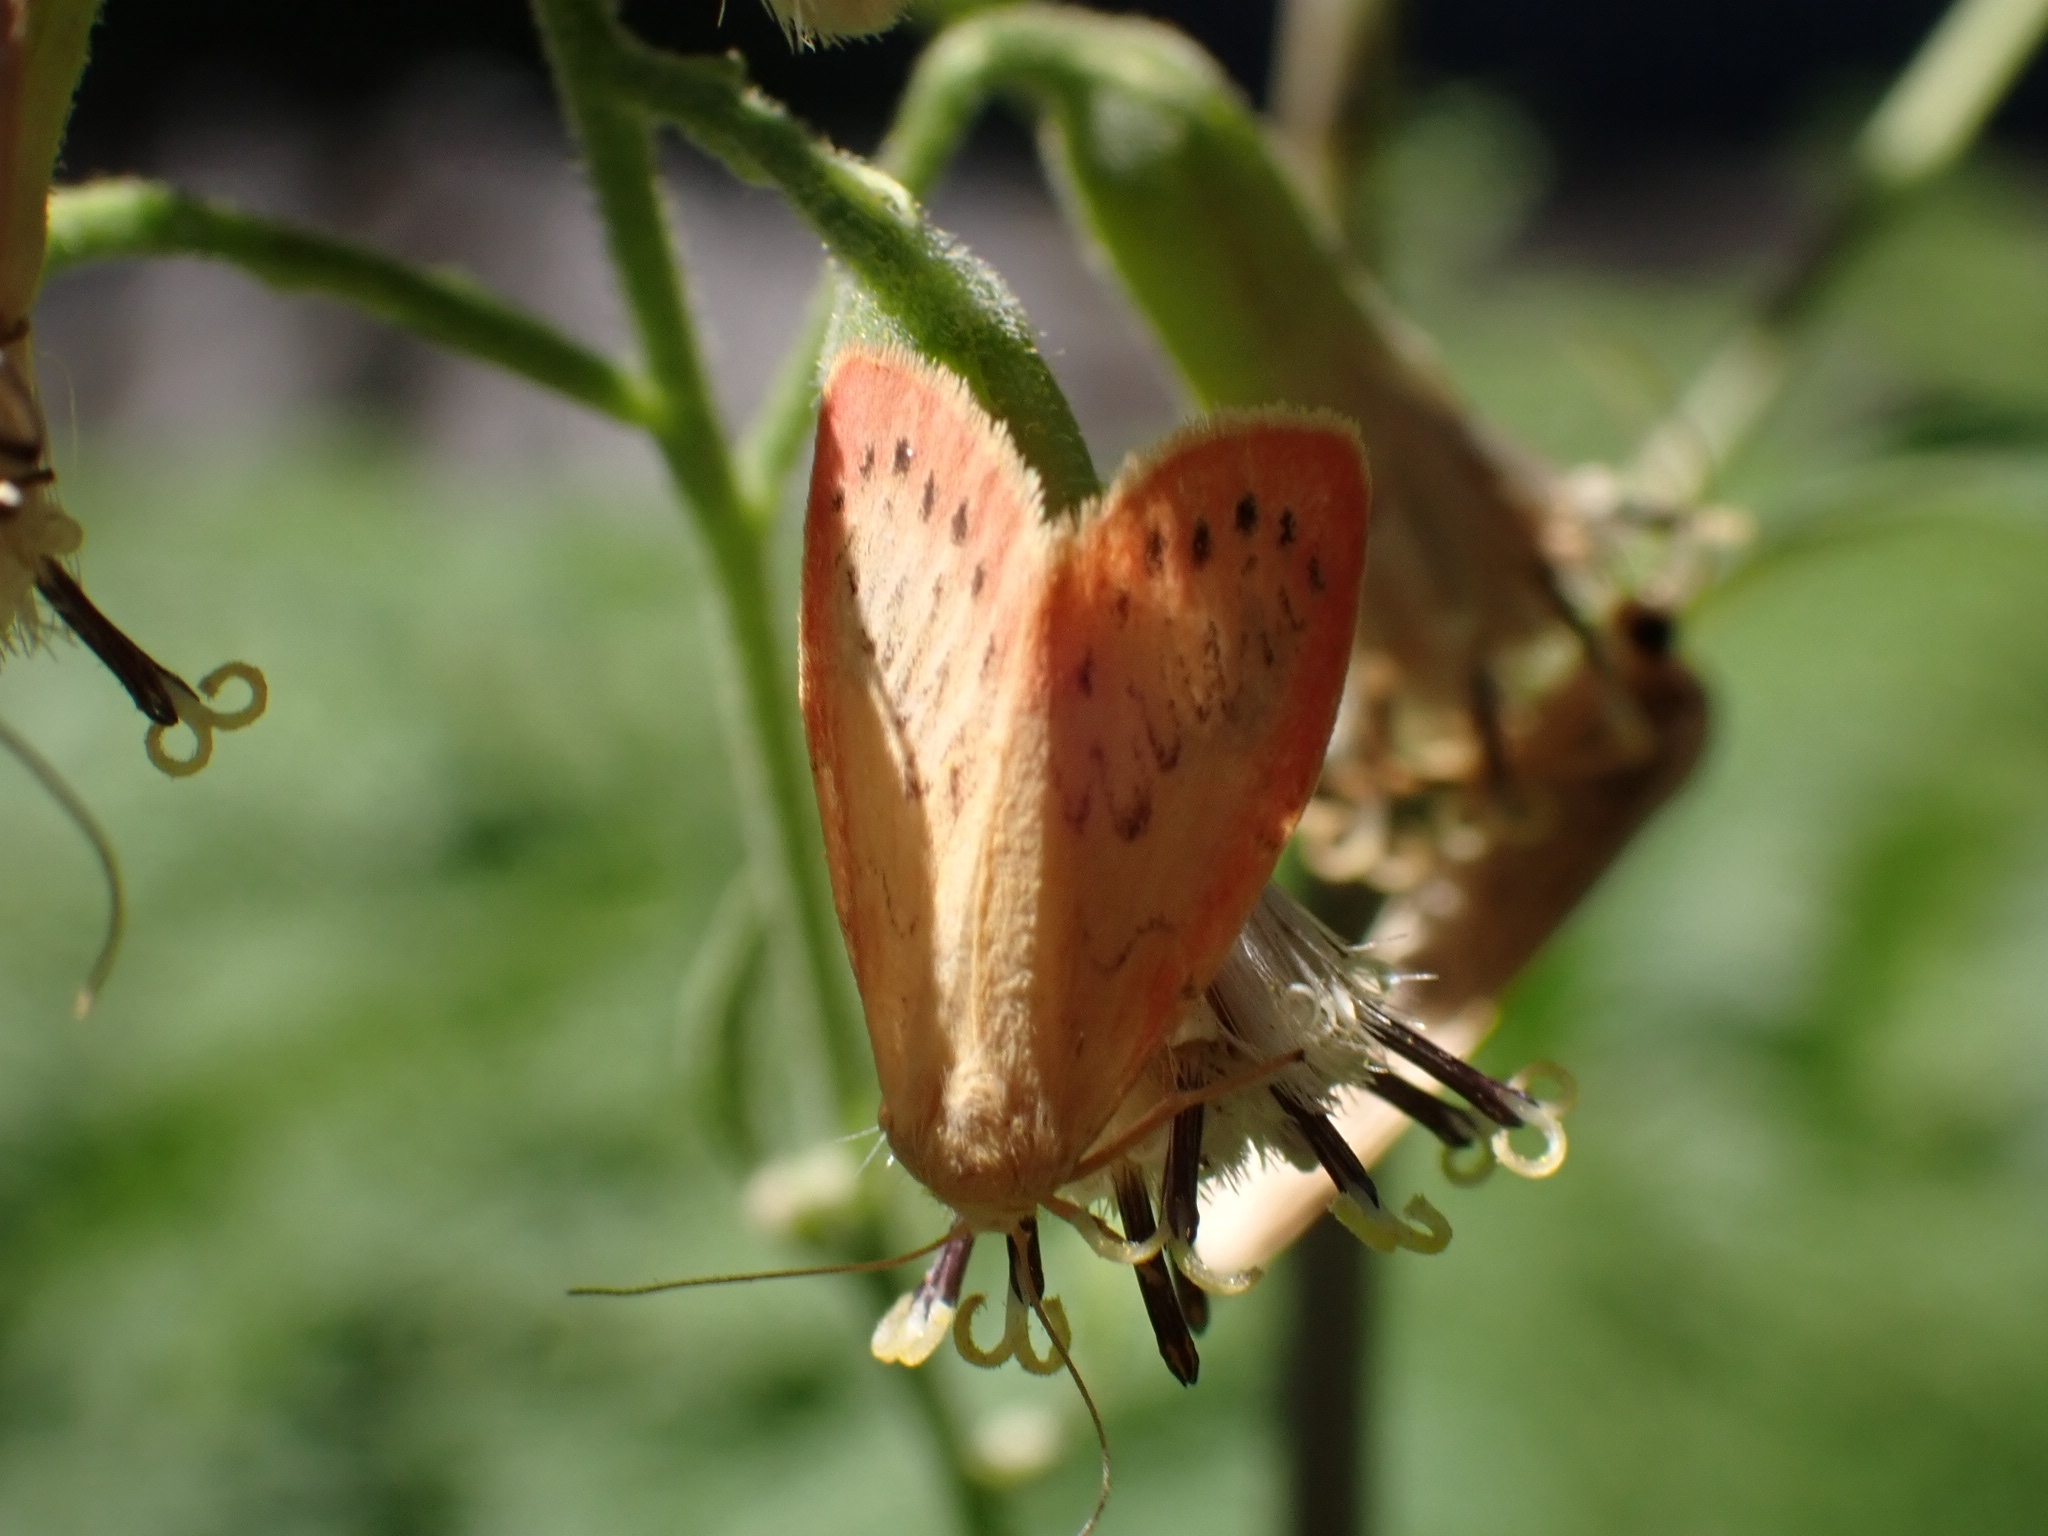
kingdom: Animalia
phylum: Arthropoda
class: Insecta
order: Lepidoptera
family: Erebidae
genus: Miltochrista
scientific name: Miltochrista miniata
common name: Rosy footman
